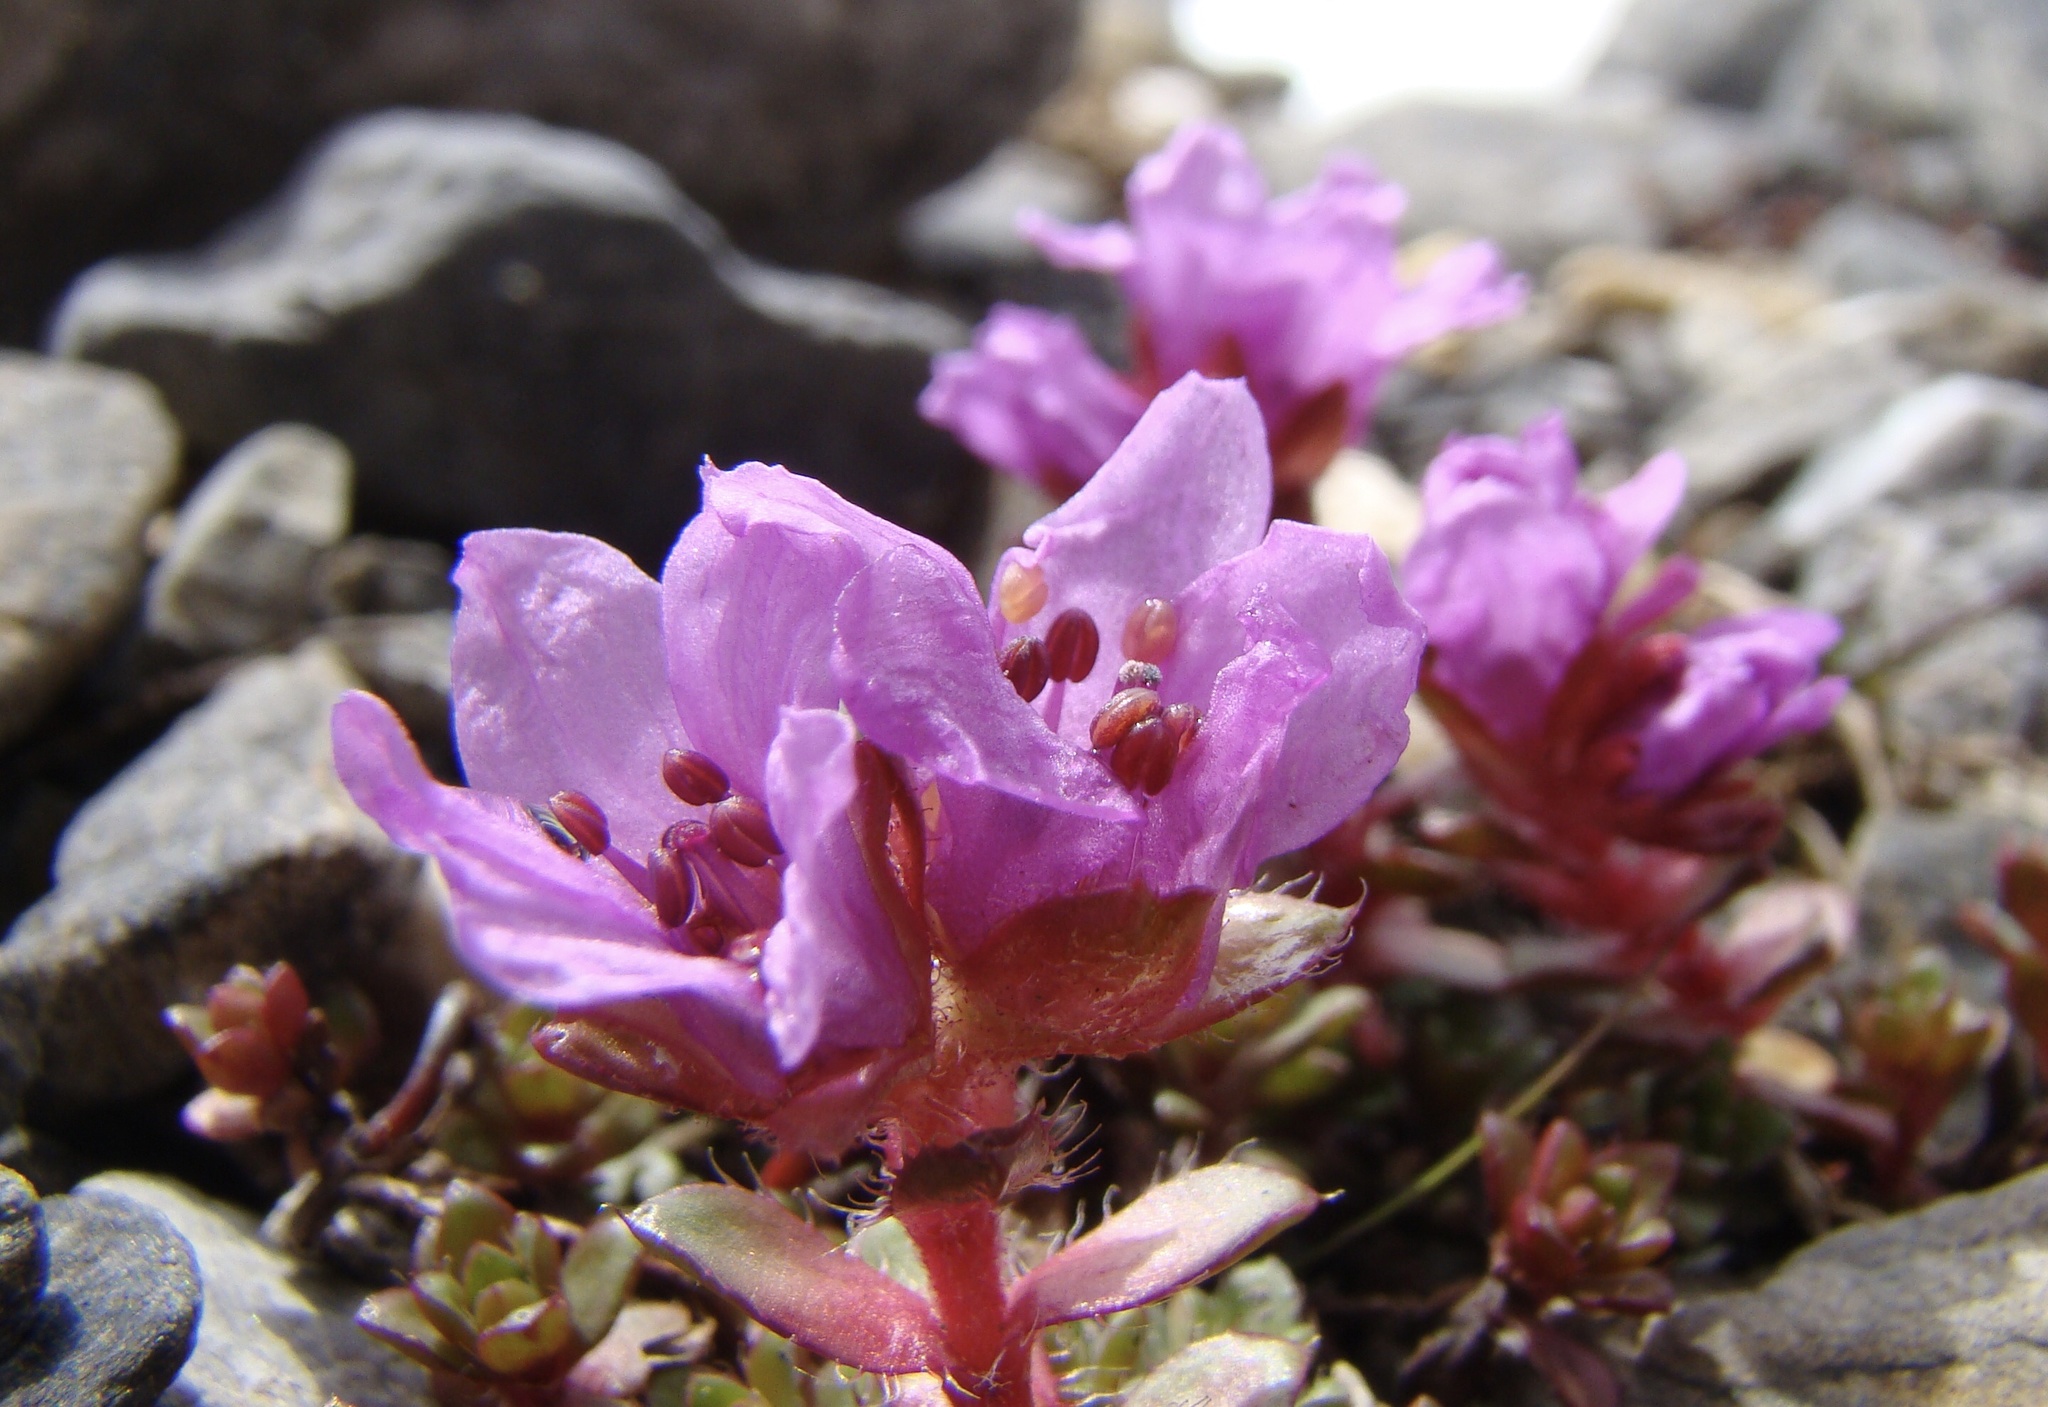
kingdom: Plantae
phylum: Tracheophyta
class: Magnoliopsida
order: Saxifragales
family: Saxifragaceae
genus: Saxifraga
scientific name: Saxifraga oppositifolia
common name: Purple saxifrage
